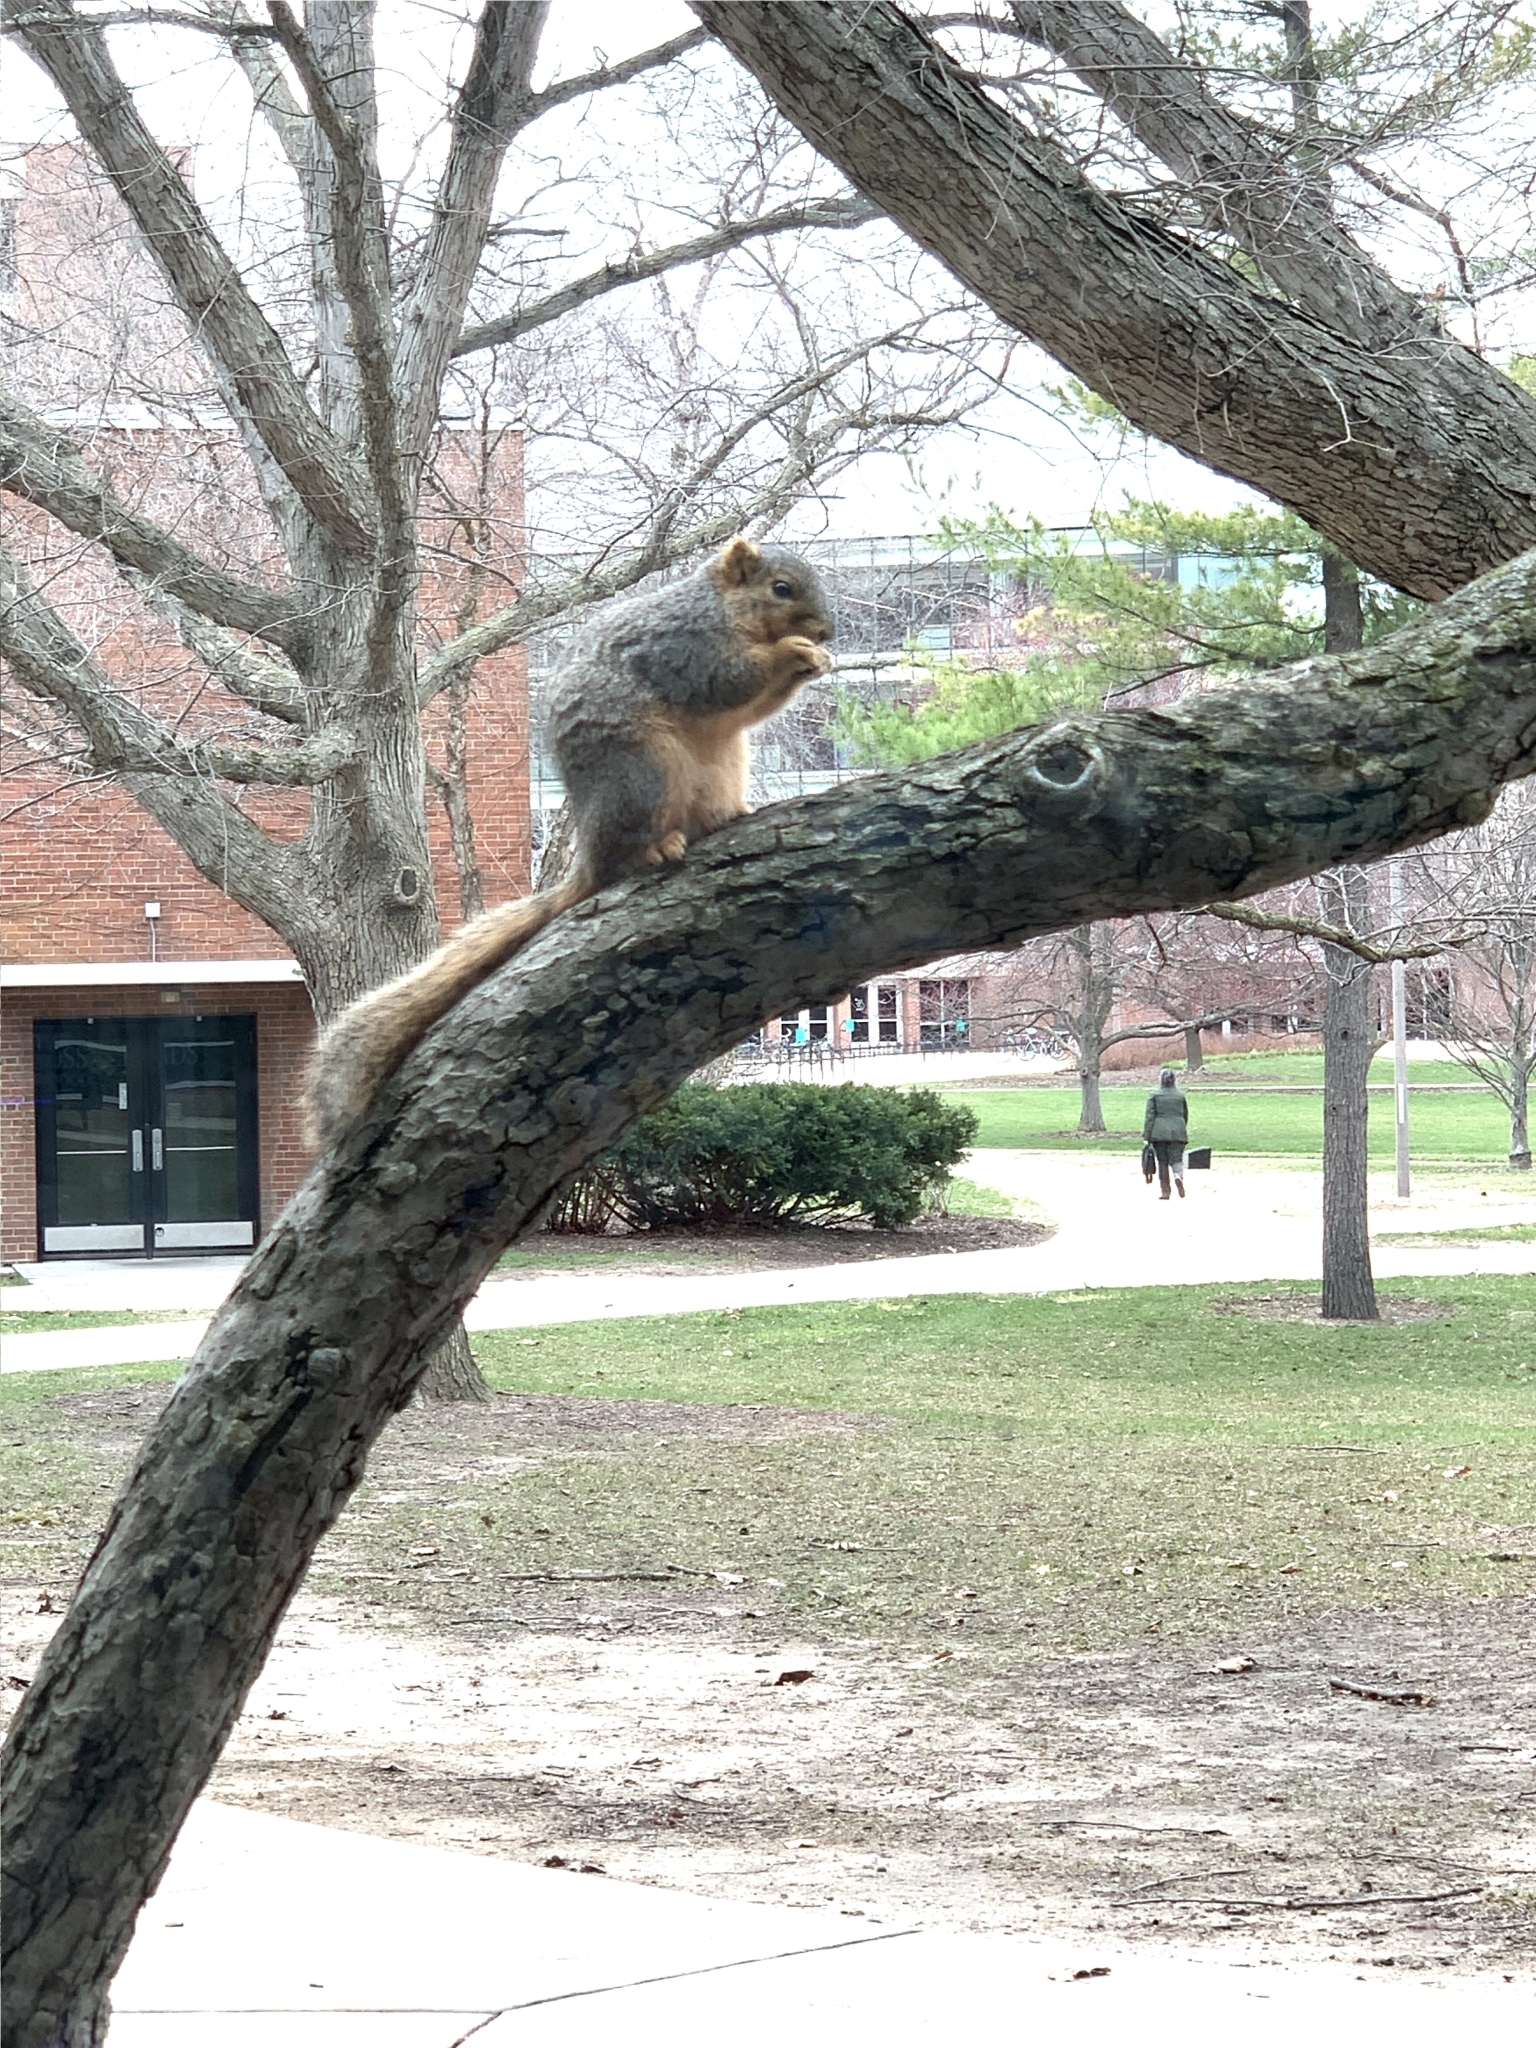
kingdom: Animalia
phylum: Chordata
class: Mammalia
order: Rodentia
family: Sciuridae
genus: Sciurus
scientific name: Sciurus niger
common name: Fox squirrel
